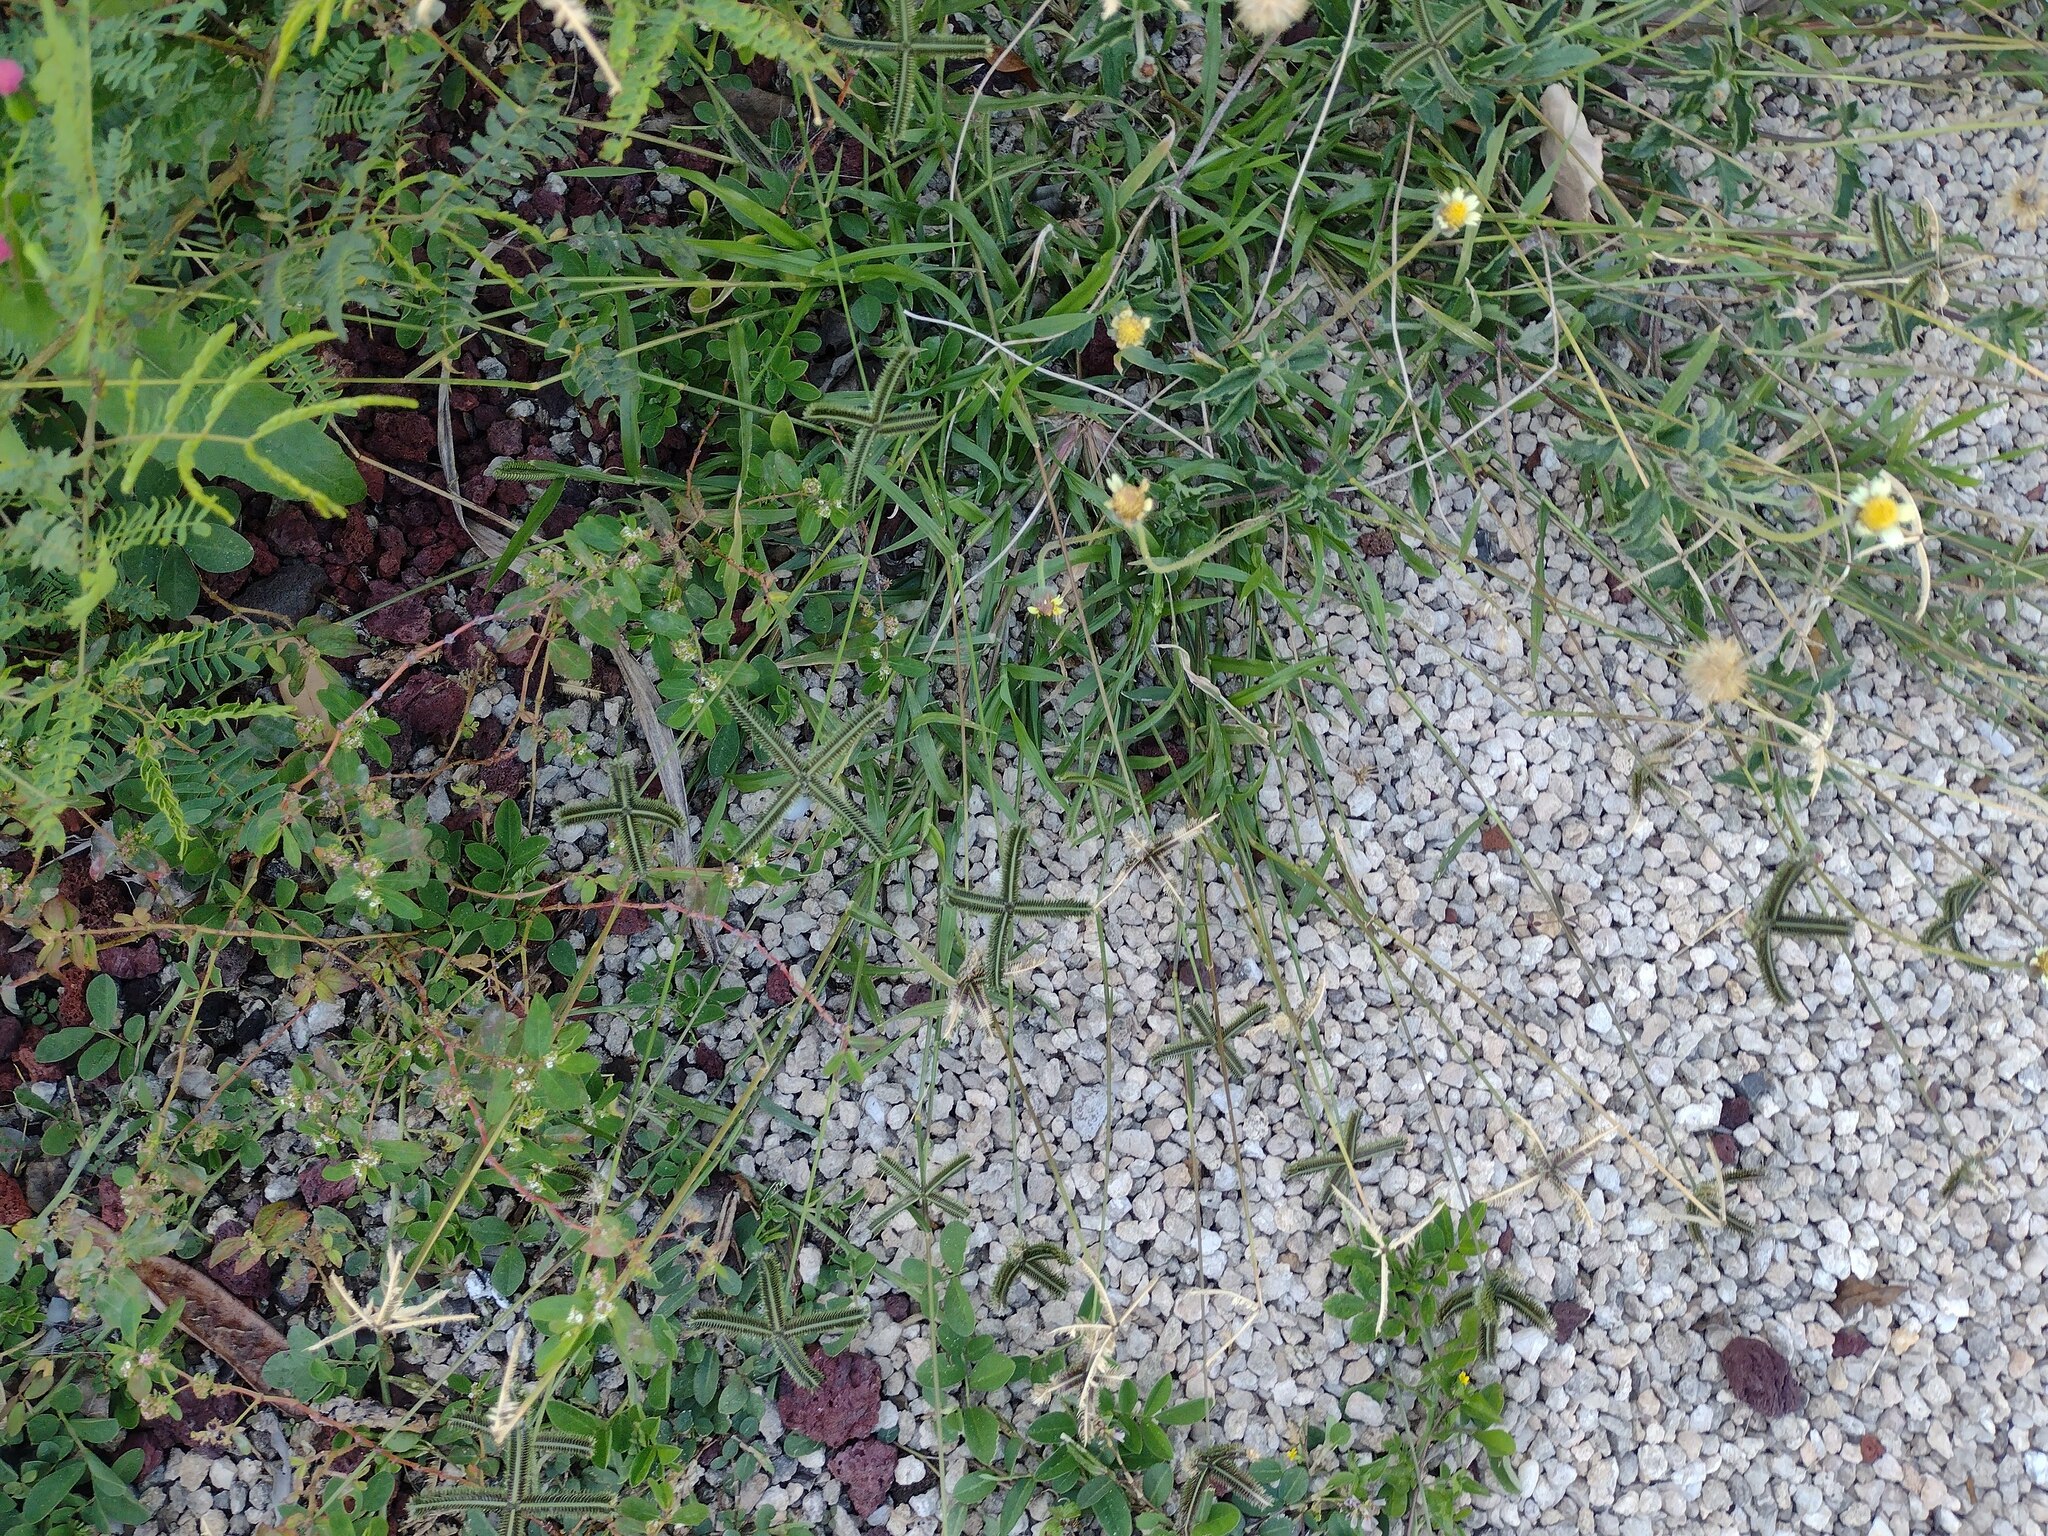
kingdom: Plantae
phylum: Tracheophyta
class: Liliopsida
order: Poales
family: Poaceae
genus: Dactyloctenium
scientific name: Dactyloctenium aegyptium
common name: Egyptian grass
